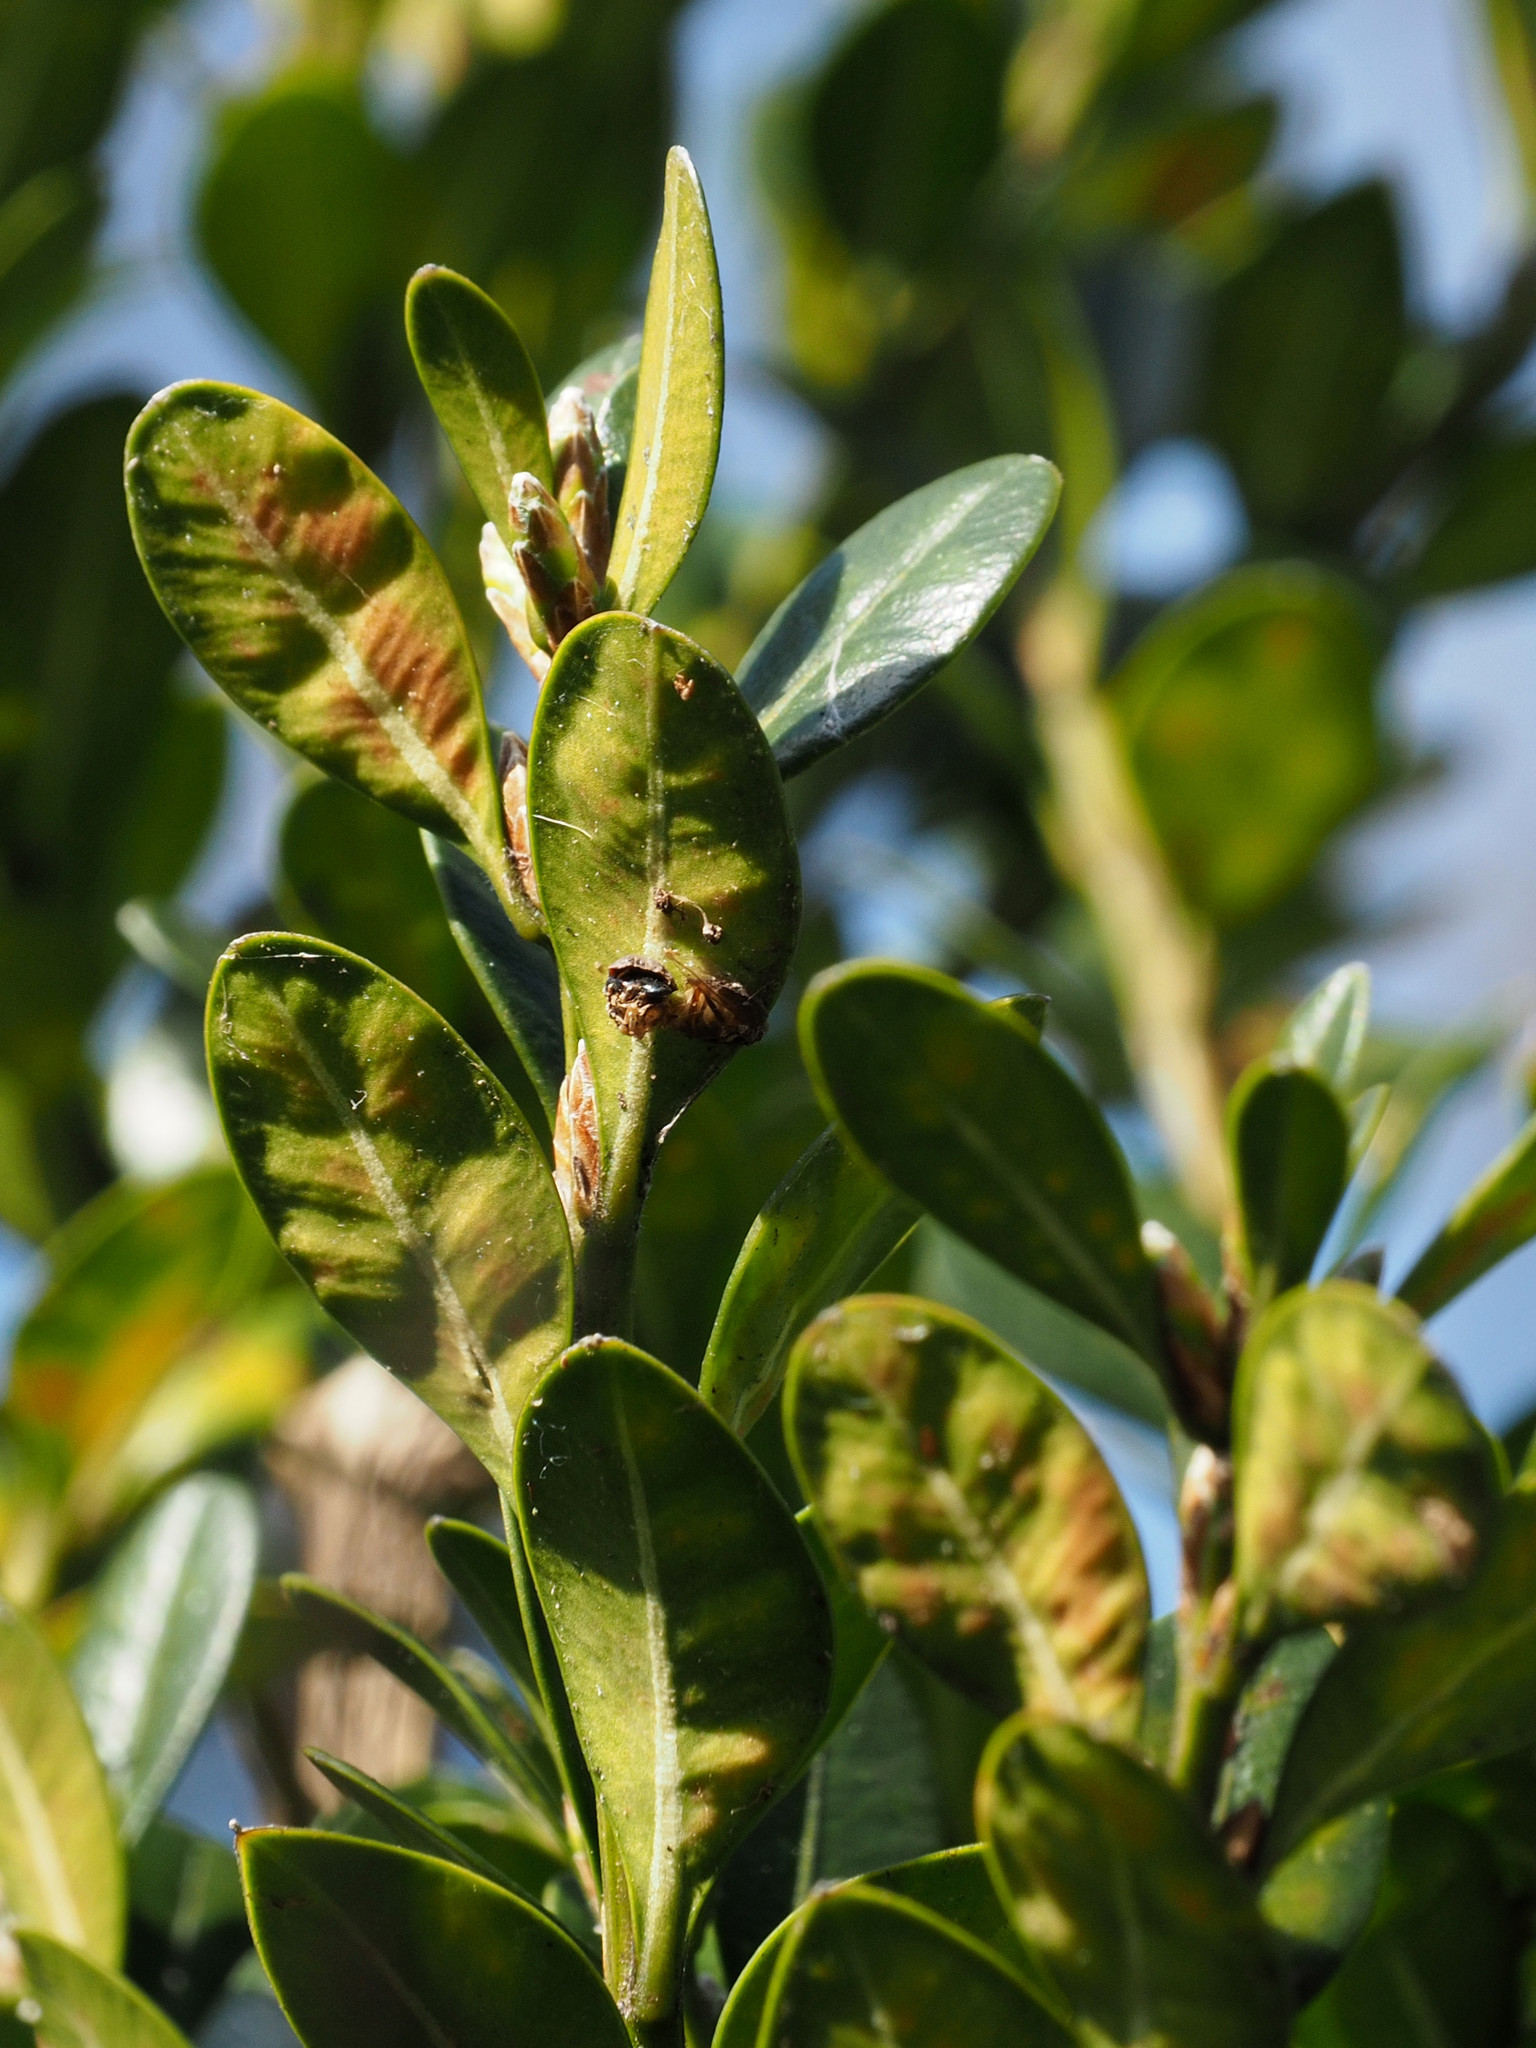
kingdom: Animalia
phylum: Arthropoda
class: Insecta
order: Diptera
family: Cecidomyiidae
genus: Monarthropalpus
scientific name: Monarthropalpus flavus
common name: Boxwood leafminer
